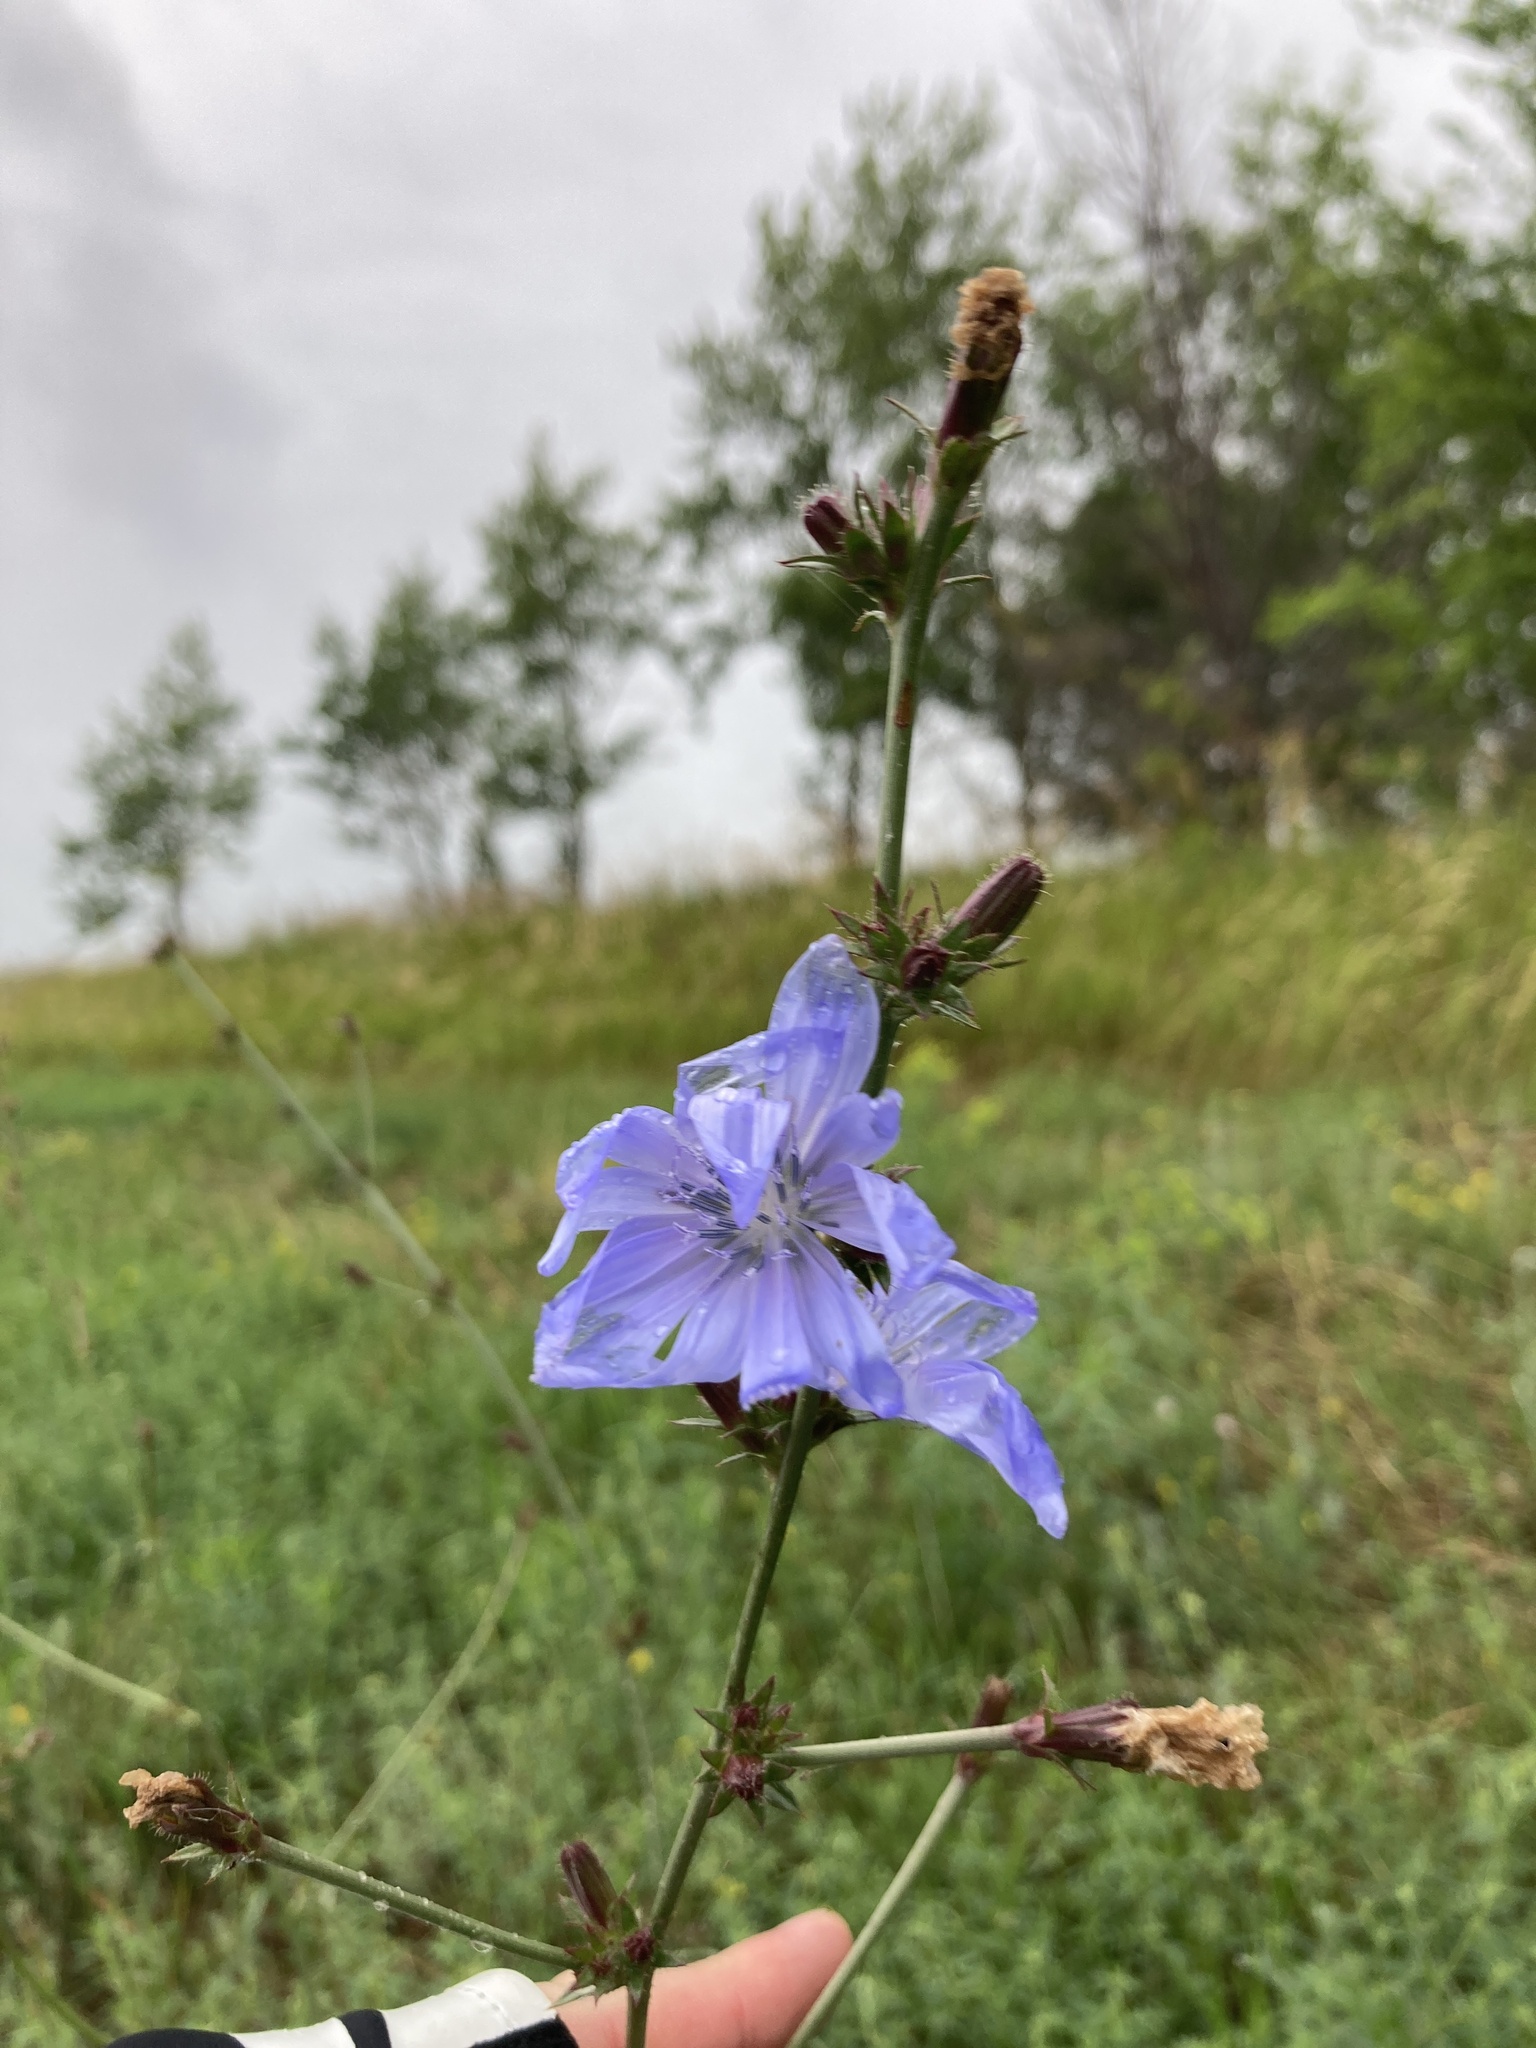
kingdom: Plantae
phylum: Tracheophyta
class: Magnoliopsida
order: Asterales
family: Asteraceae
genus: Cichorium
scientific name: Cichorium intybus
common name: Chicory
